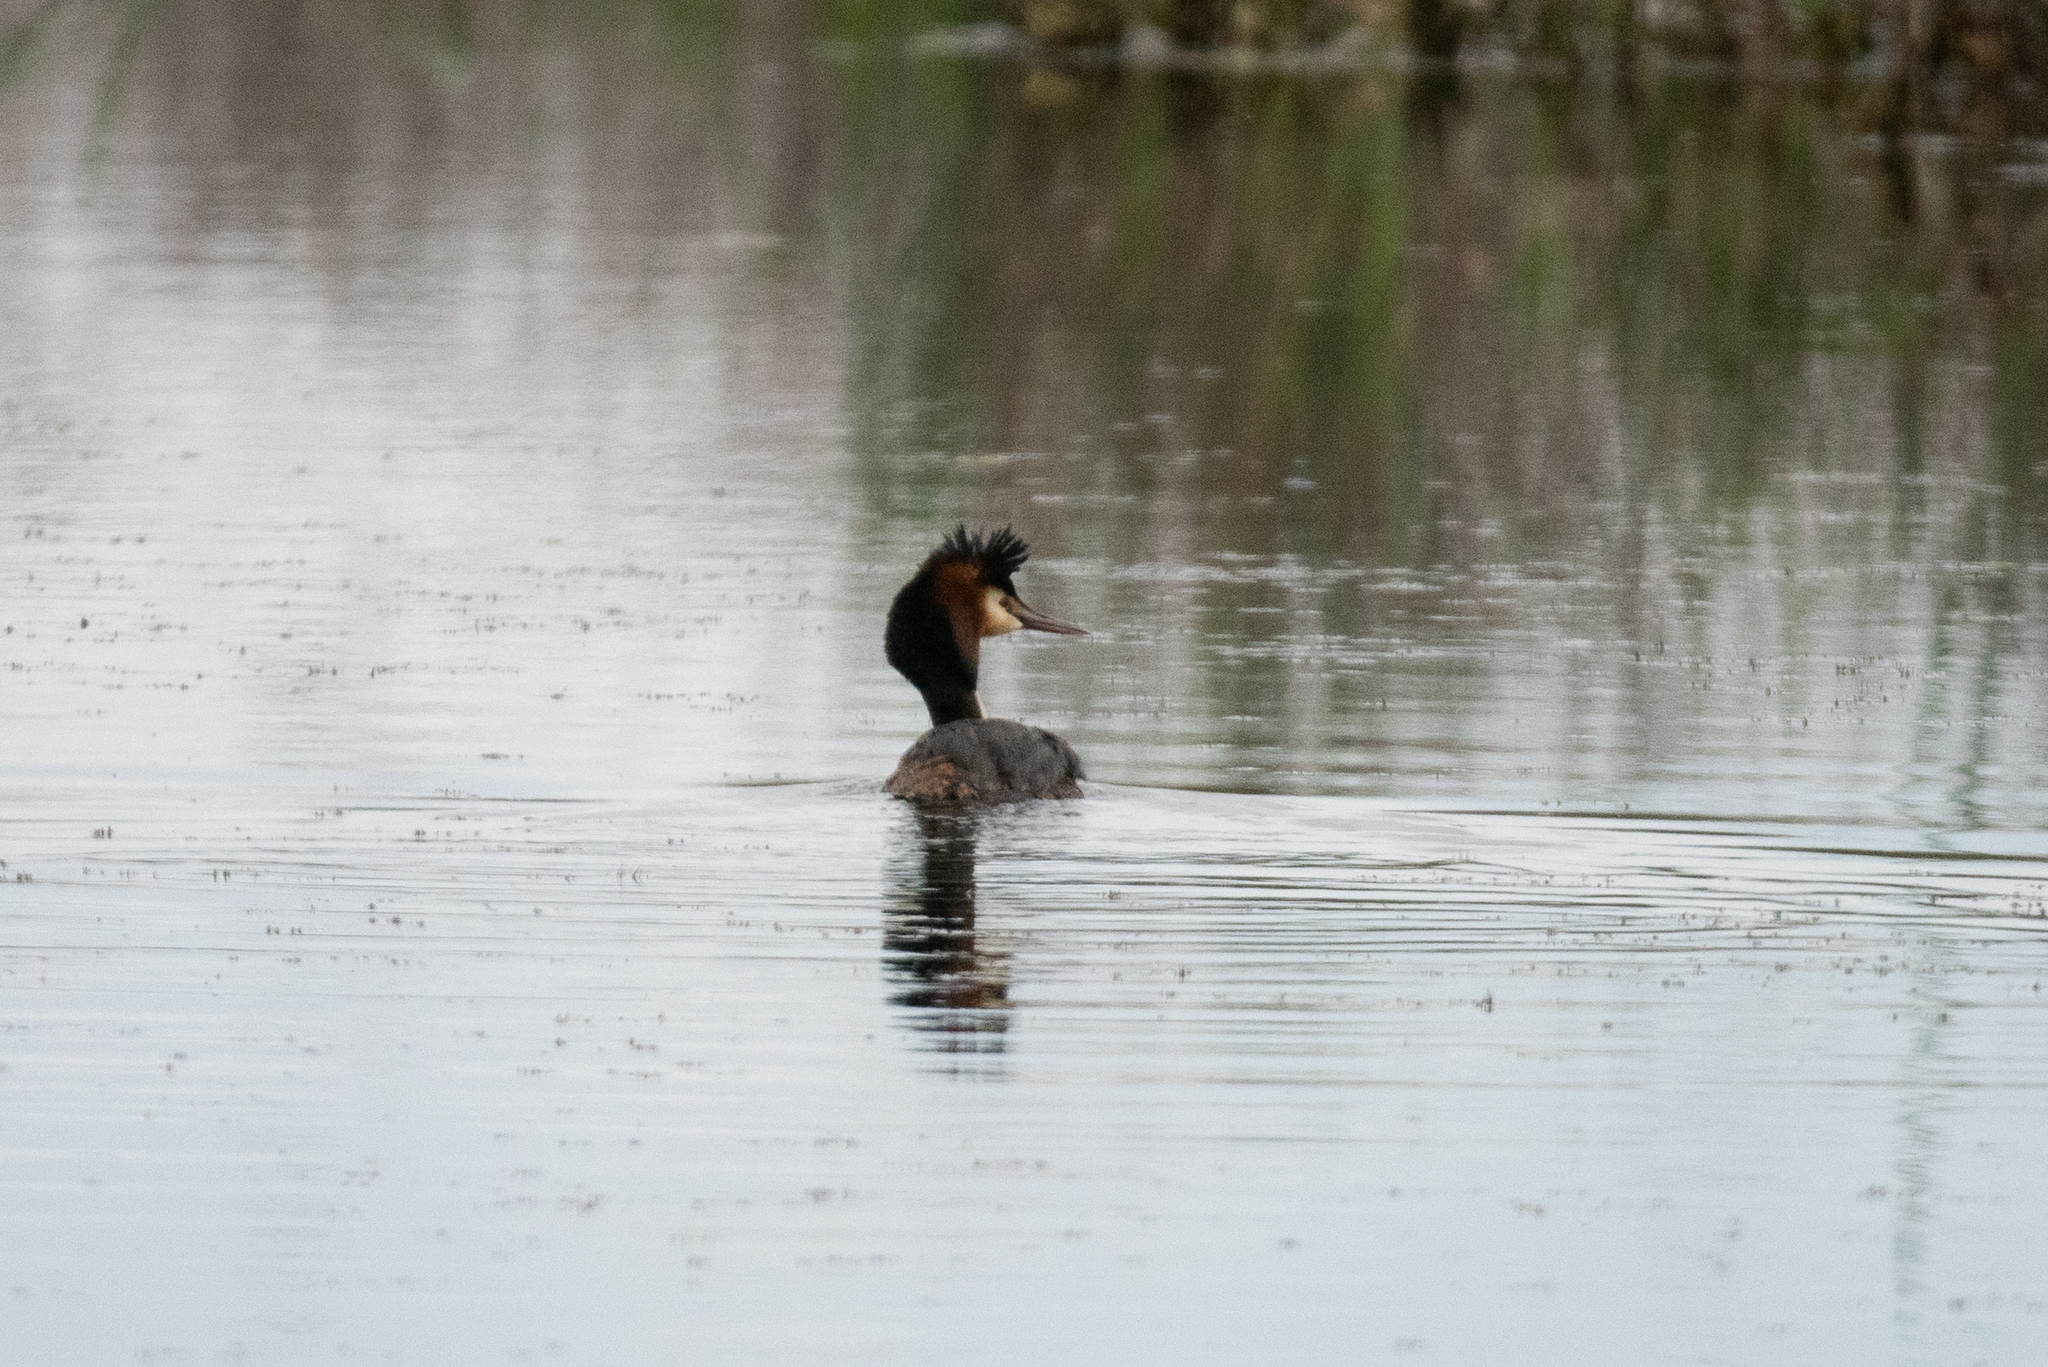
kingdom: Animalia
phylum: Chordata
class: Aves
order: Podicipediformes
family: Podicipedidae
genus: Podiceps
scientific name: Podiceps cristatus
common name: Great crested grebe
